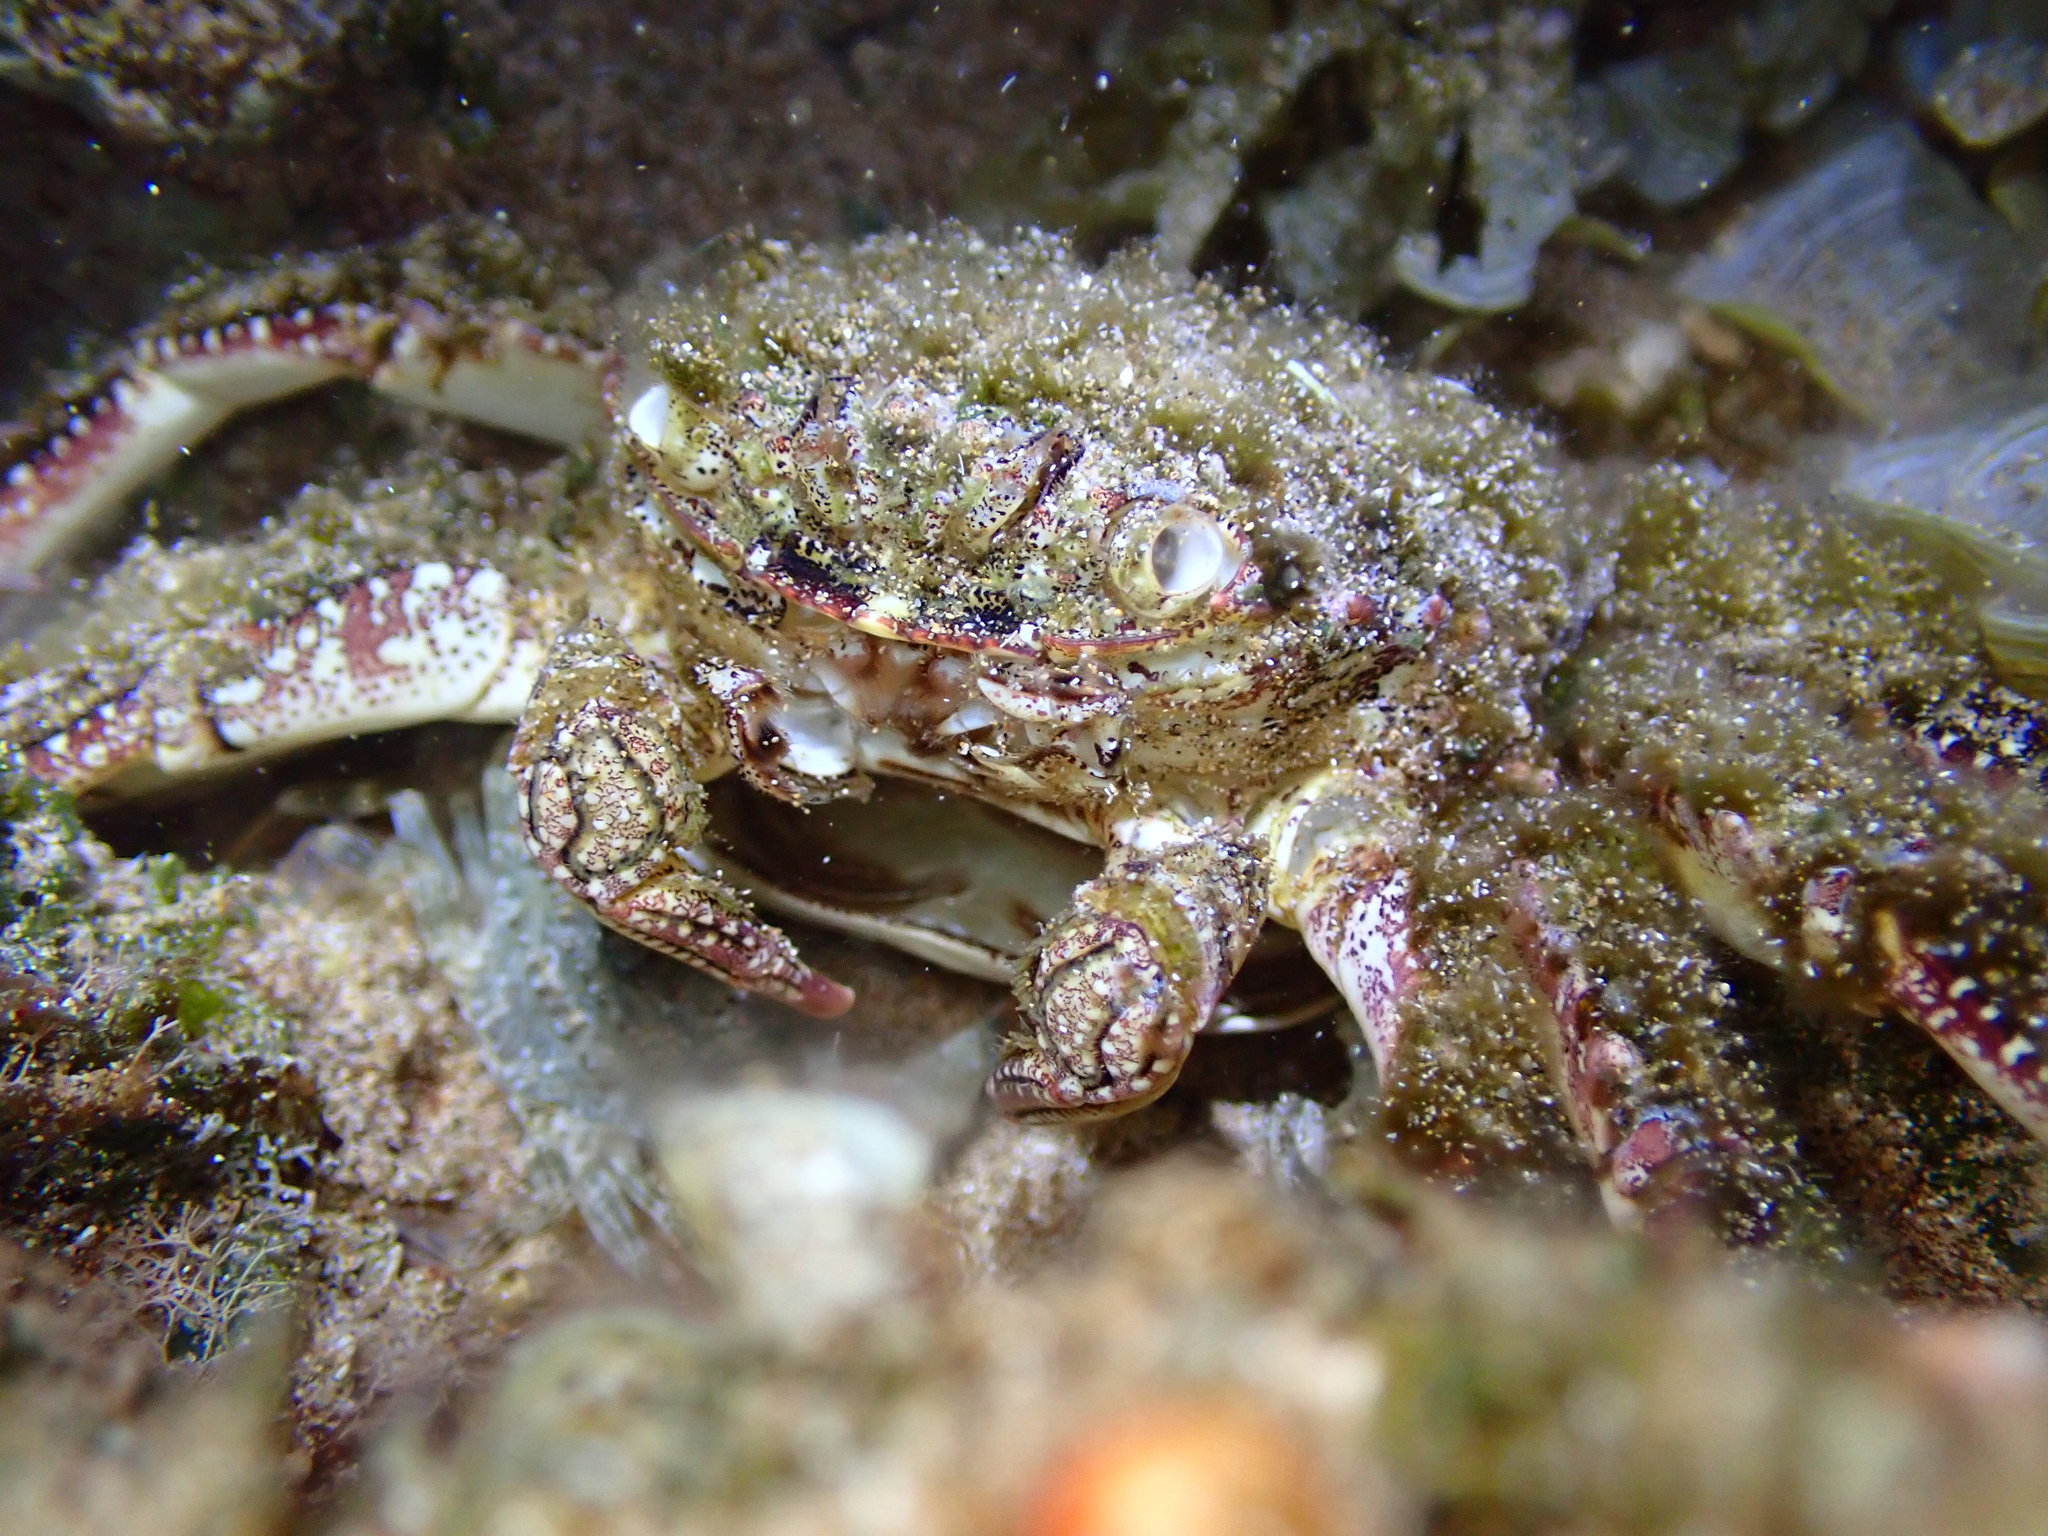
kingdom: Animalia
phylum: Arthropoda
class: Malacostraca
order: Decapoda
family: Plagusiidae
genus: Plagusia
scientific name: Plagusia squamosa
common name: Scaly rock crab
